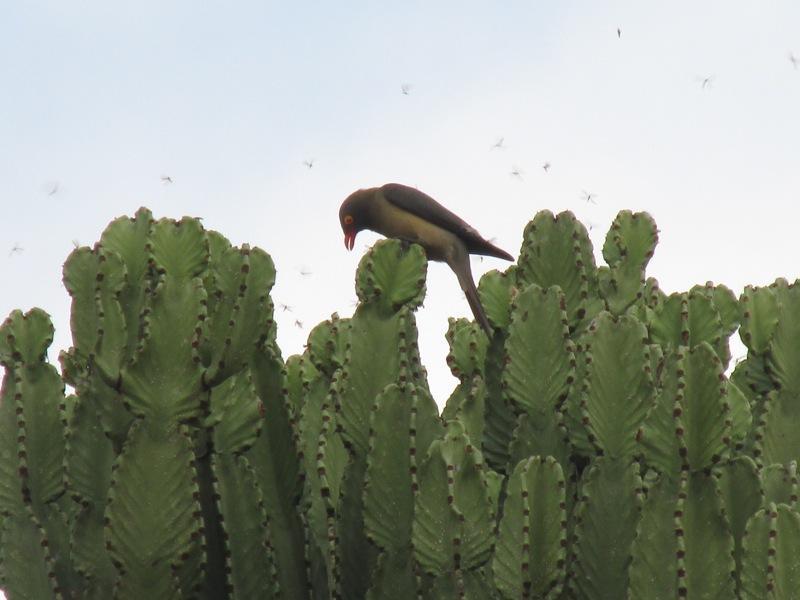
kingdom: Animalia
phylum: Chordata
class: Aves
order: Passeriformes
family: Buphagidae
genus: Buphagus
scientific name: Buphagus erythrorhynchus
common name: Red-billed oxpecker
